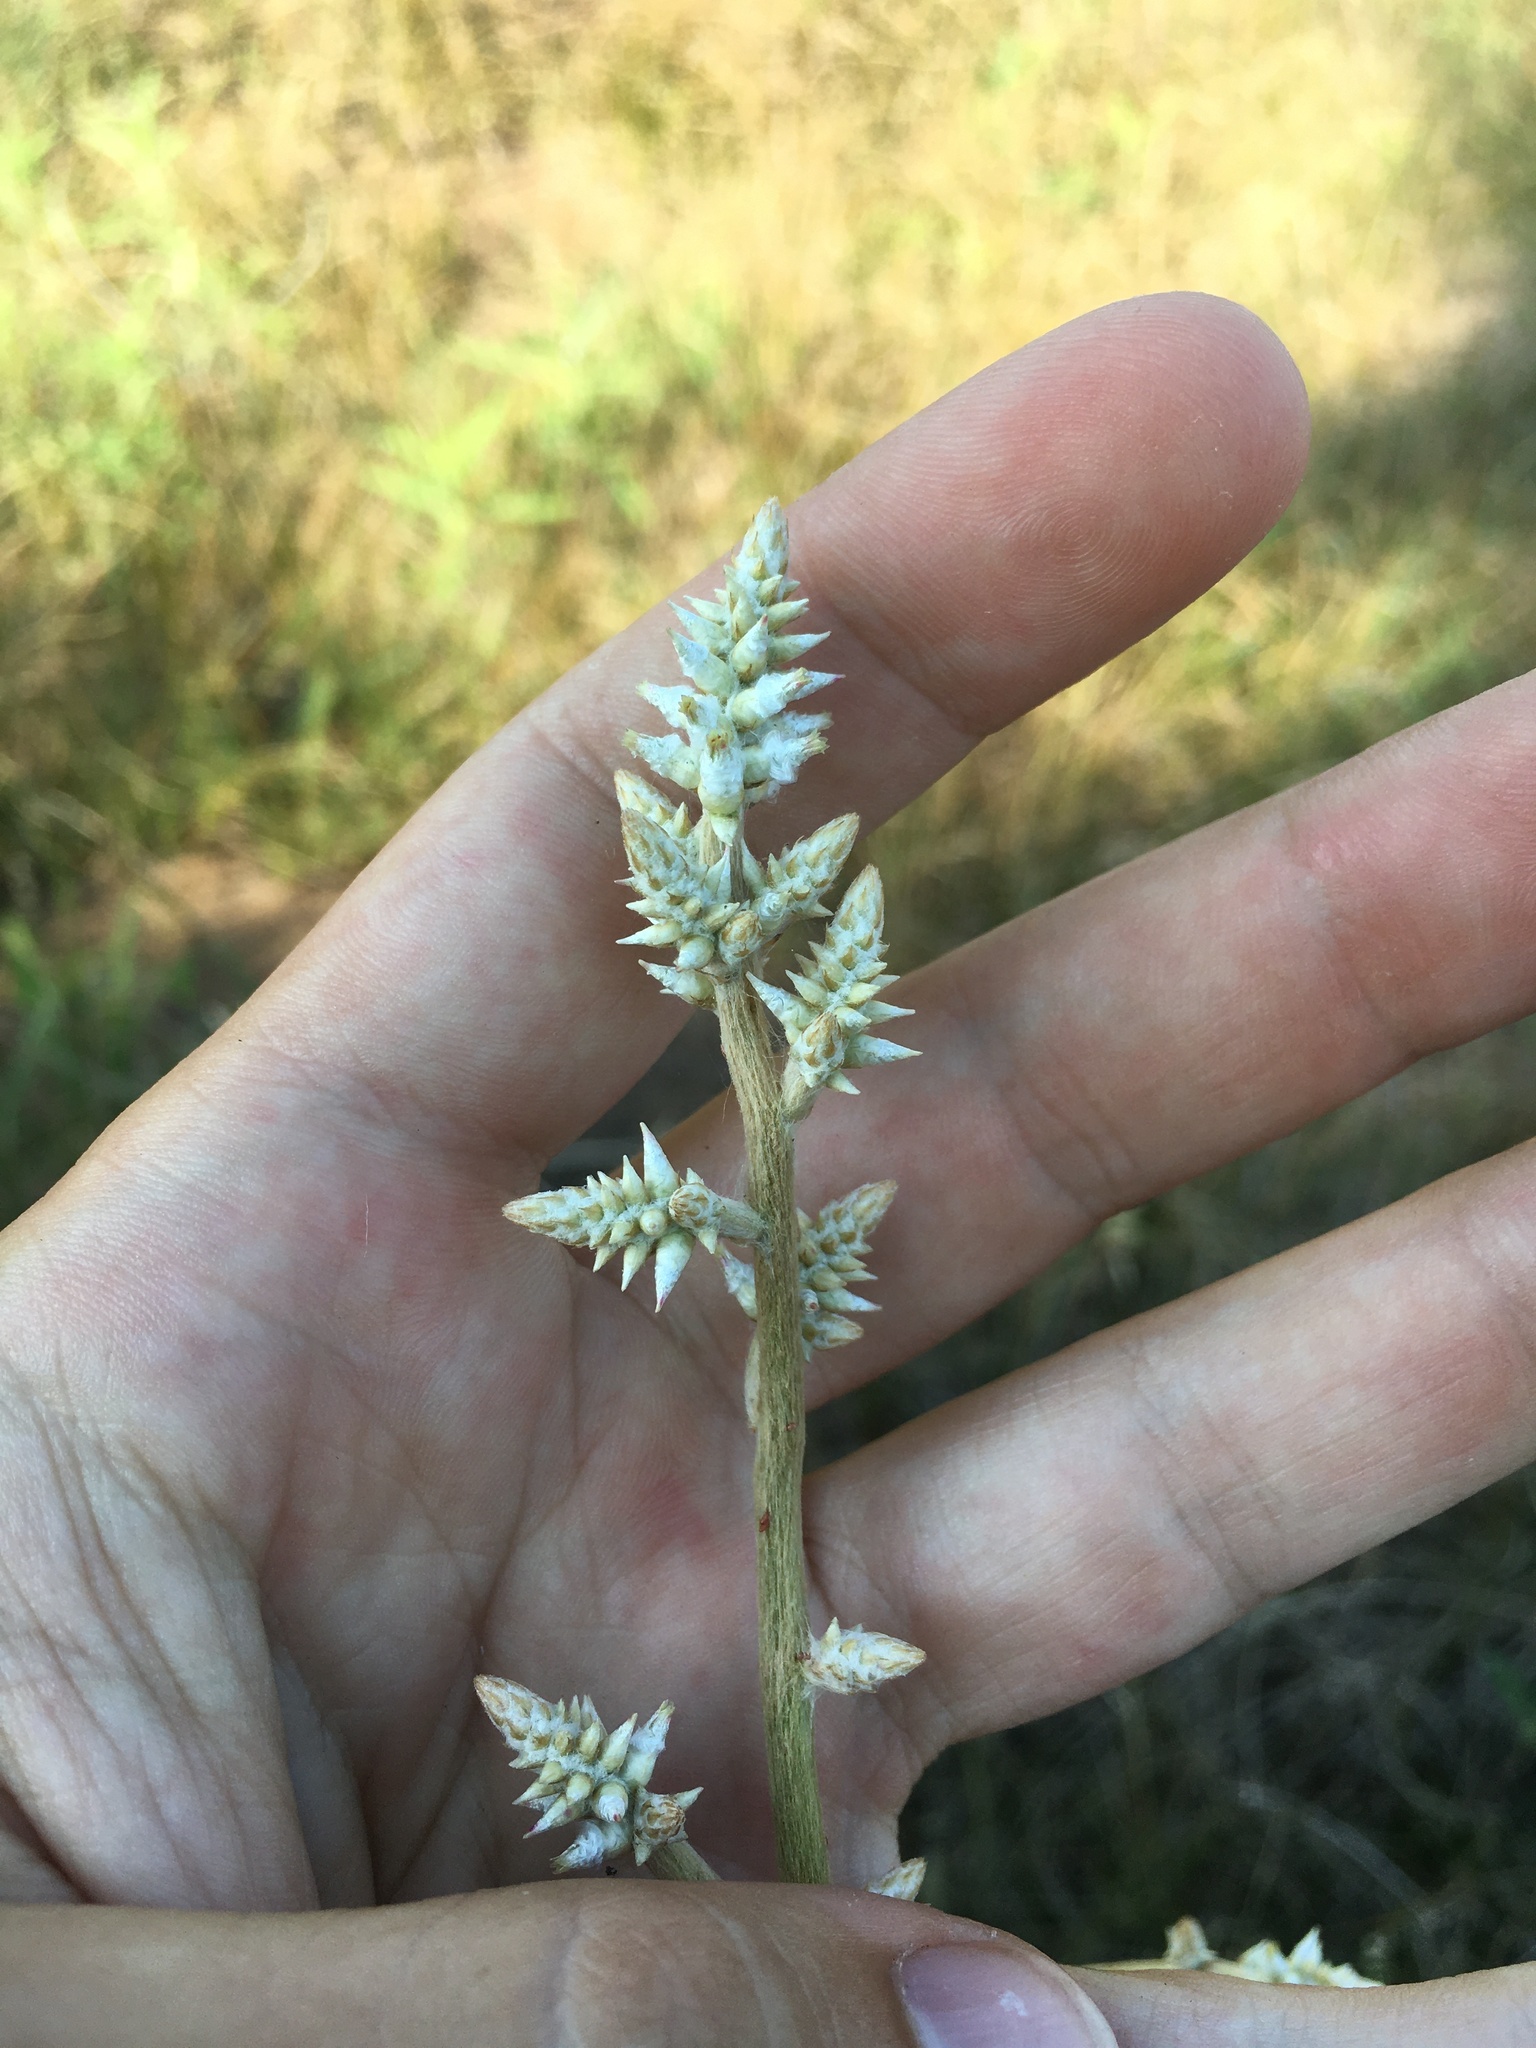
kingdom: Plantae
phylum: Tracheophyta
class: Magnoliopsida
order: Caryophyllales
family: Amaranthaceae
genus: Froelichia
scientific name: Froelichia floridana
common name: Florida snake-cotton
